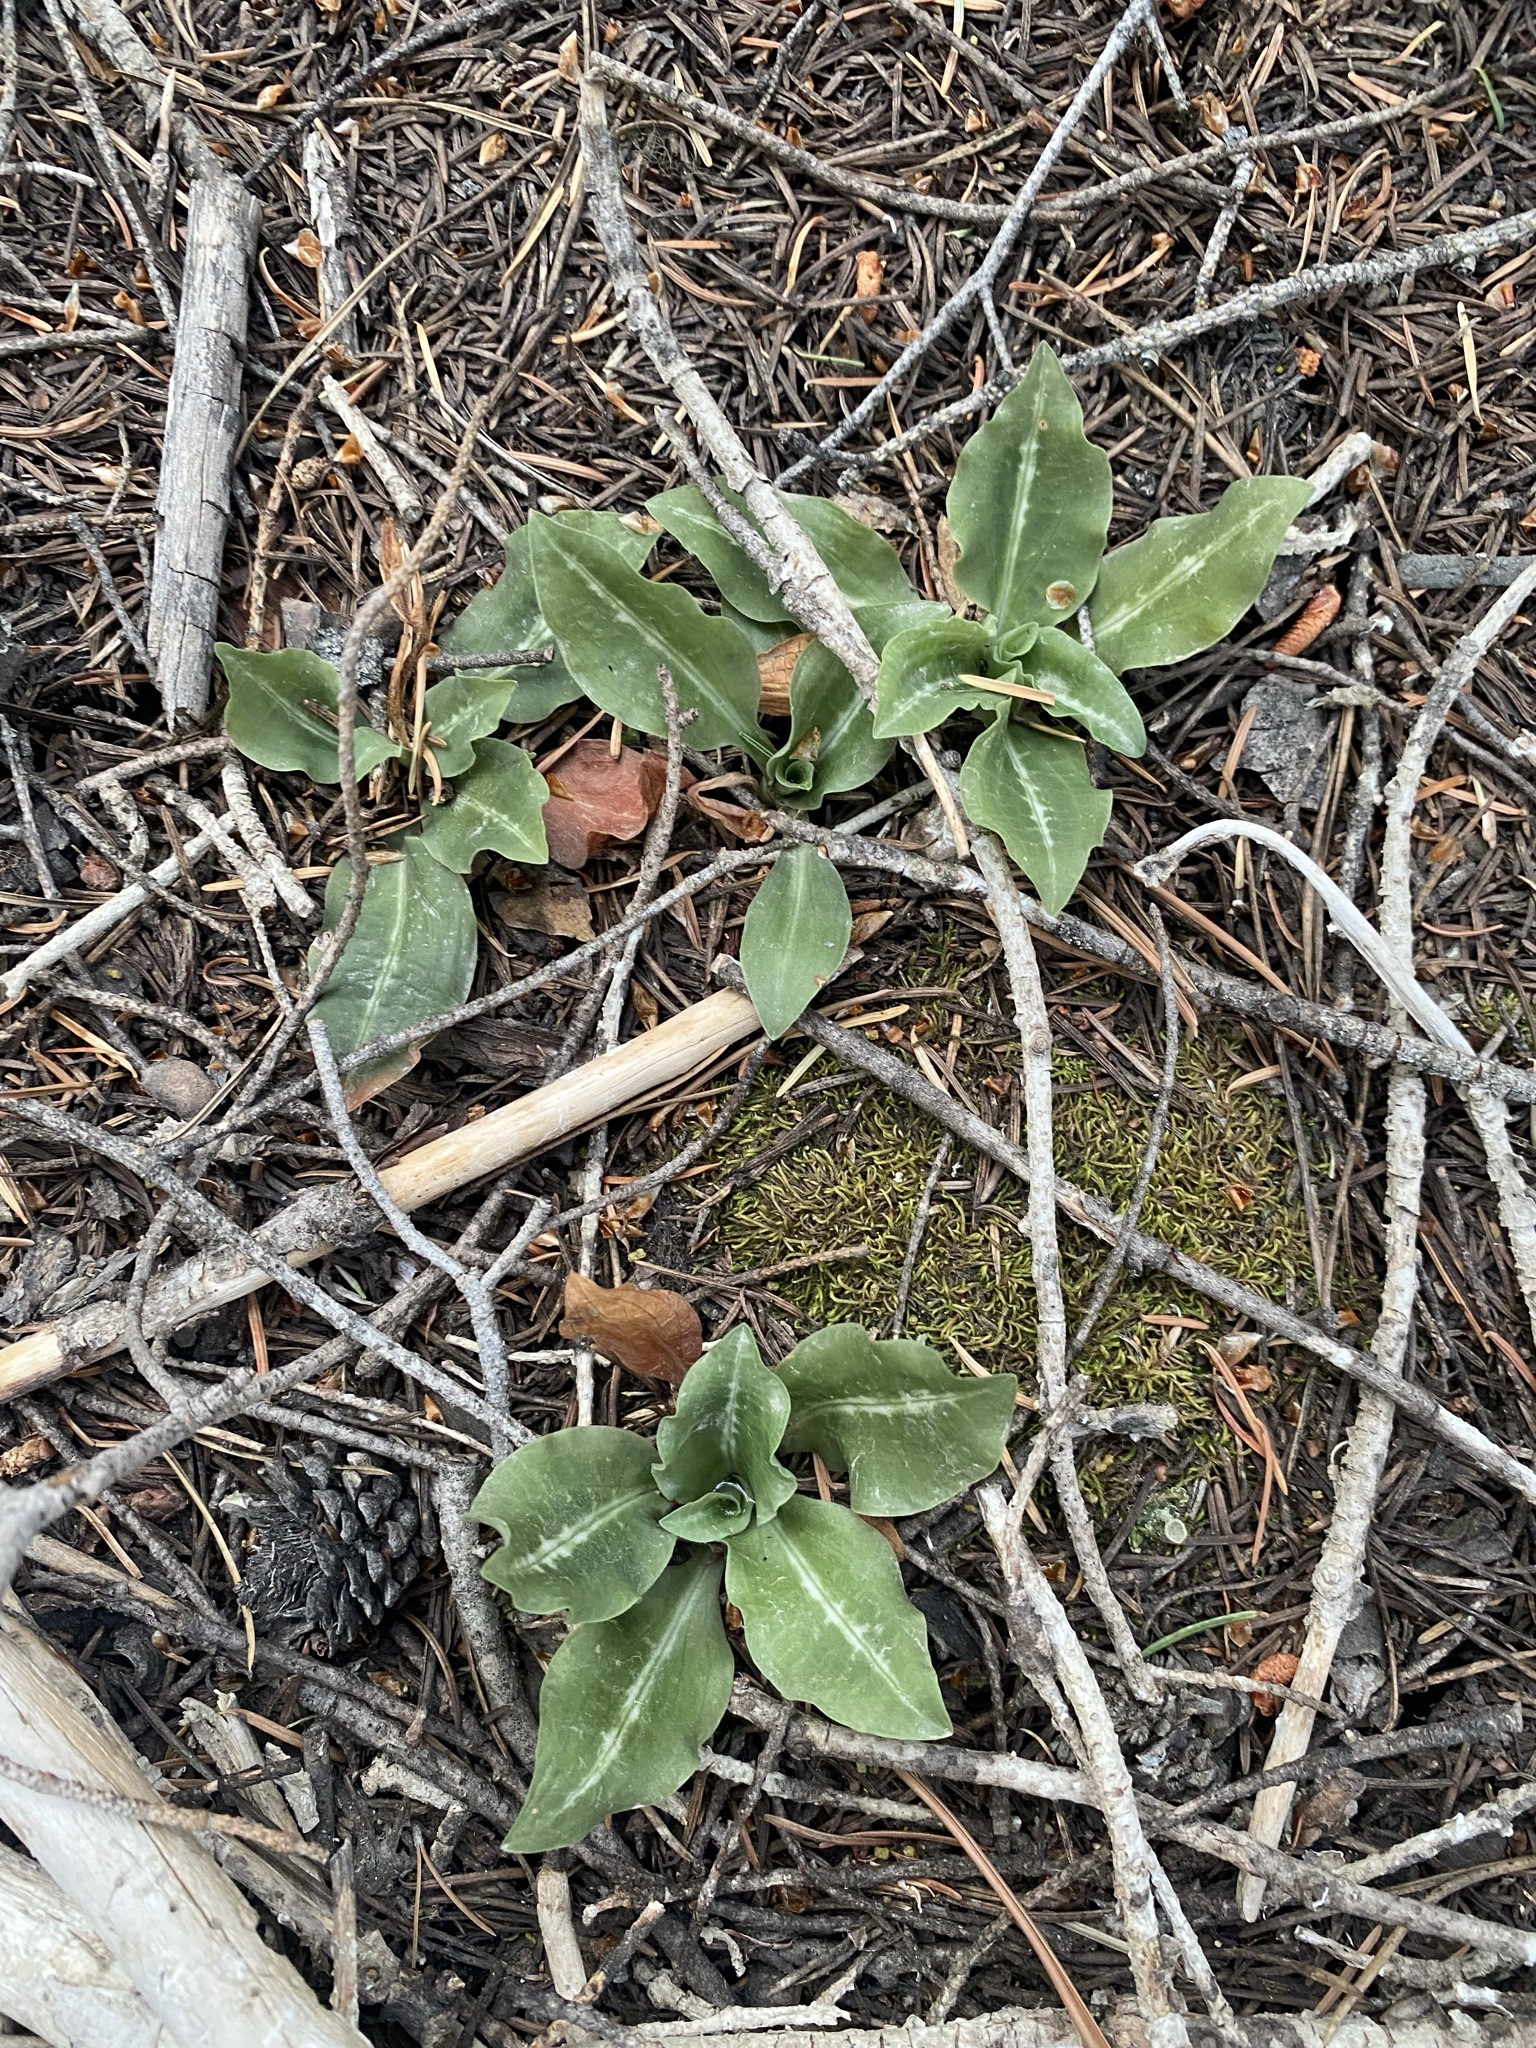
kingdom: Plantae
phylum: Tracheophyta
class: Liliopsida
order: Asparagales
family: Orchidaceae
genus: Goodyera
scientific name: Goodyera oblongifolia
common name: Giant rattlesnake-plantain
